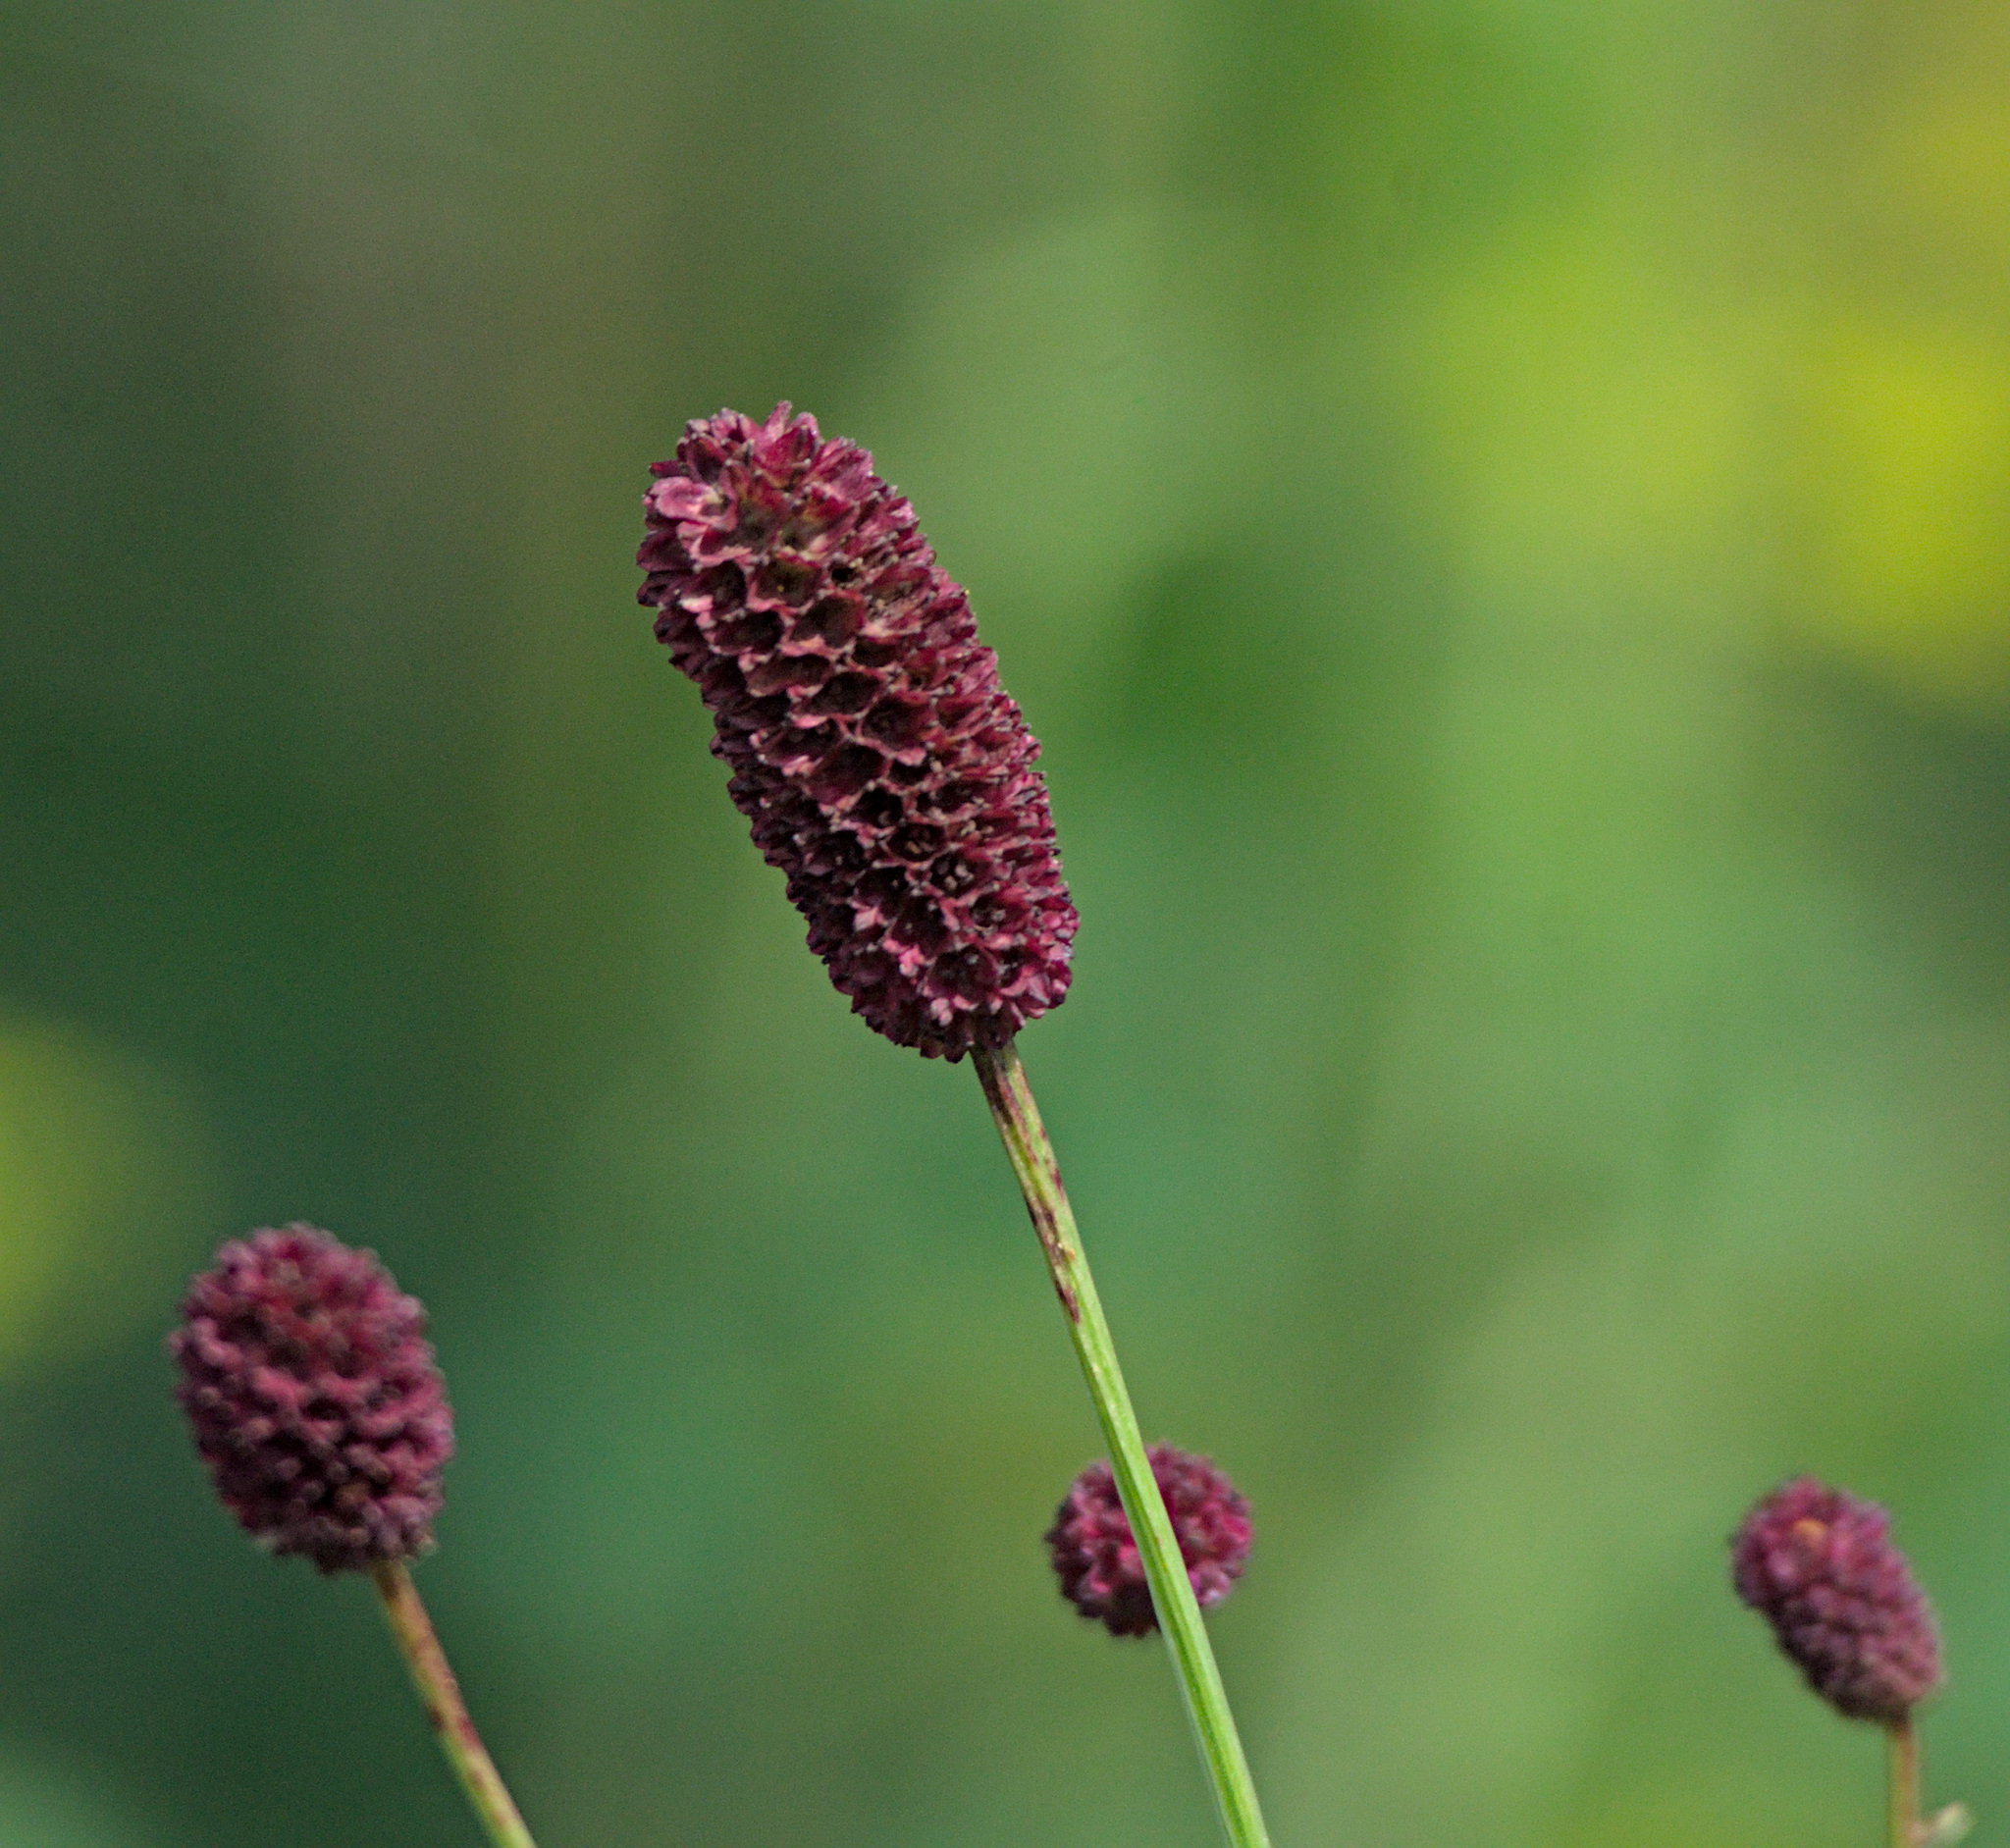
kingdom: Plantae
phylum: Tracheophyta
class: Magnoliopsida
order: Rosales
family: Rosaceae
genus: Sanguisorba
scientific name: Sanguisorba officinalis
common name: Great burnet
